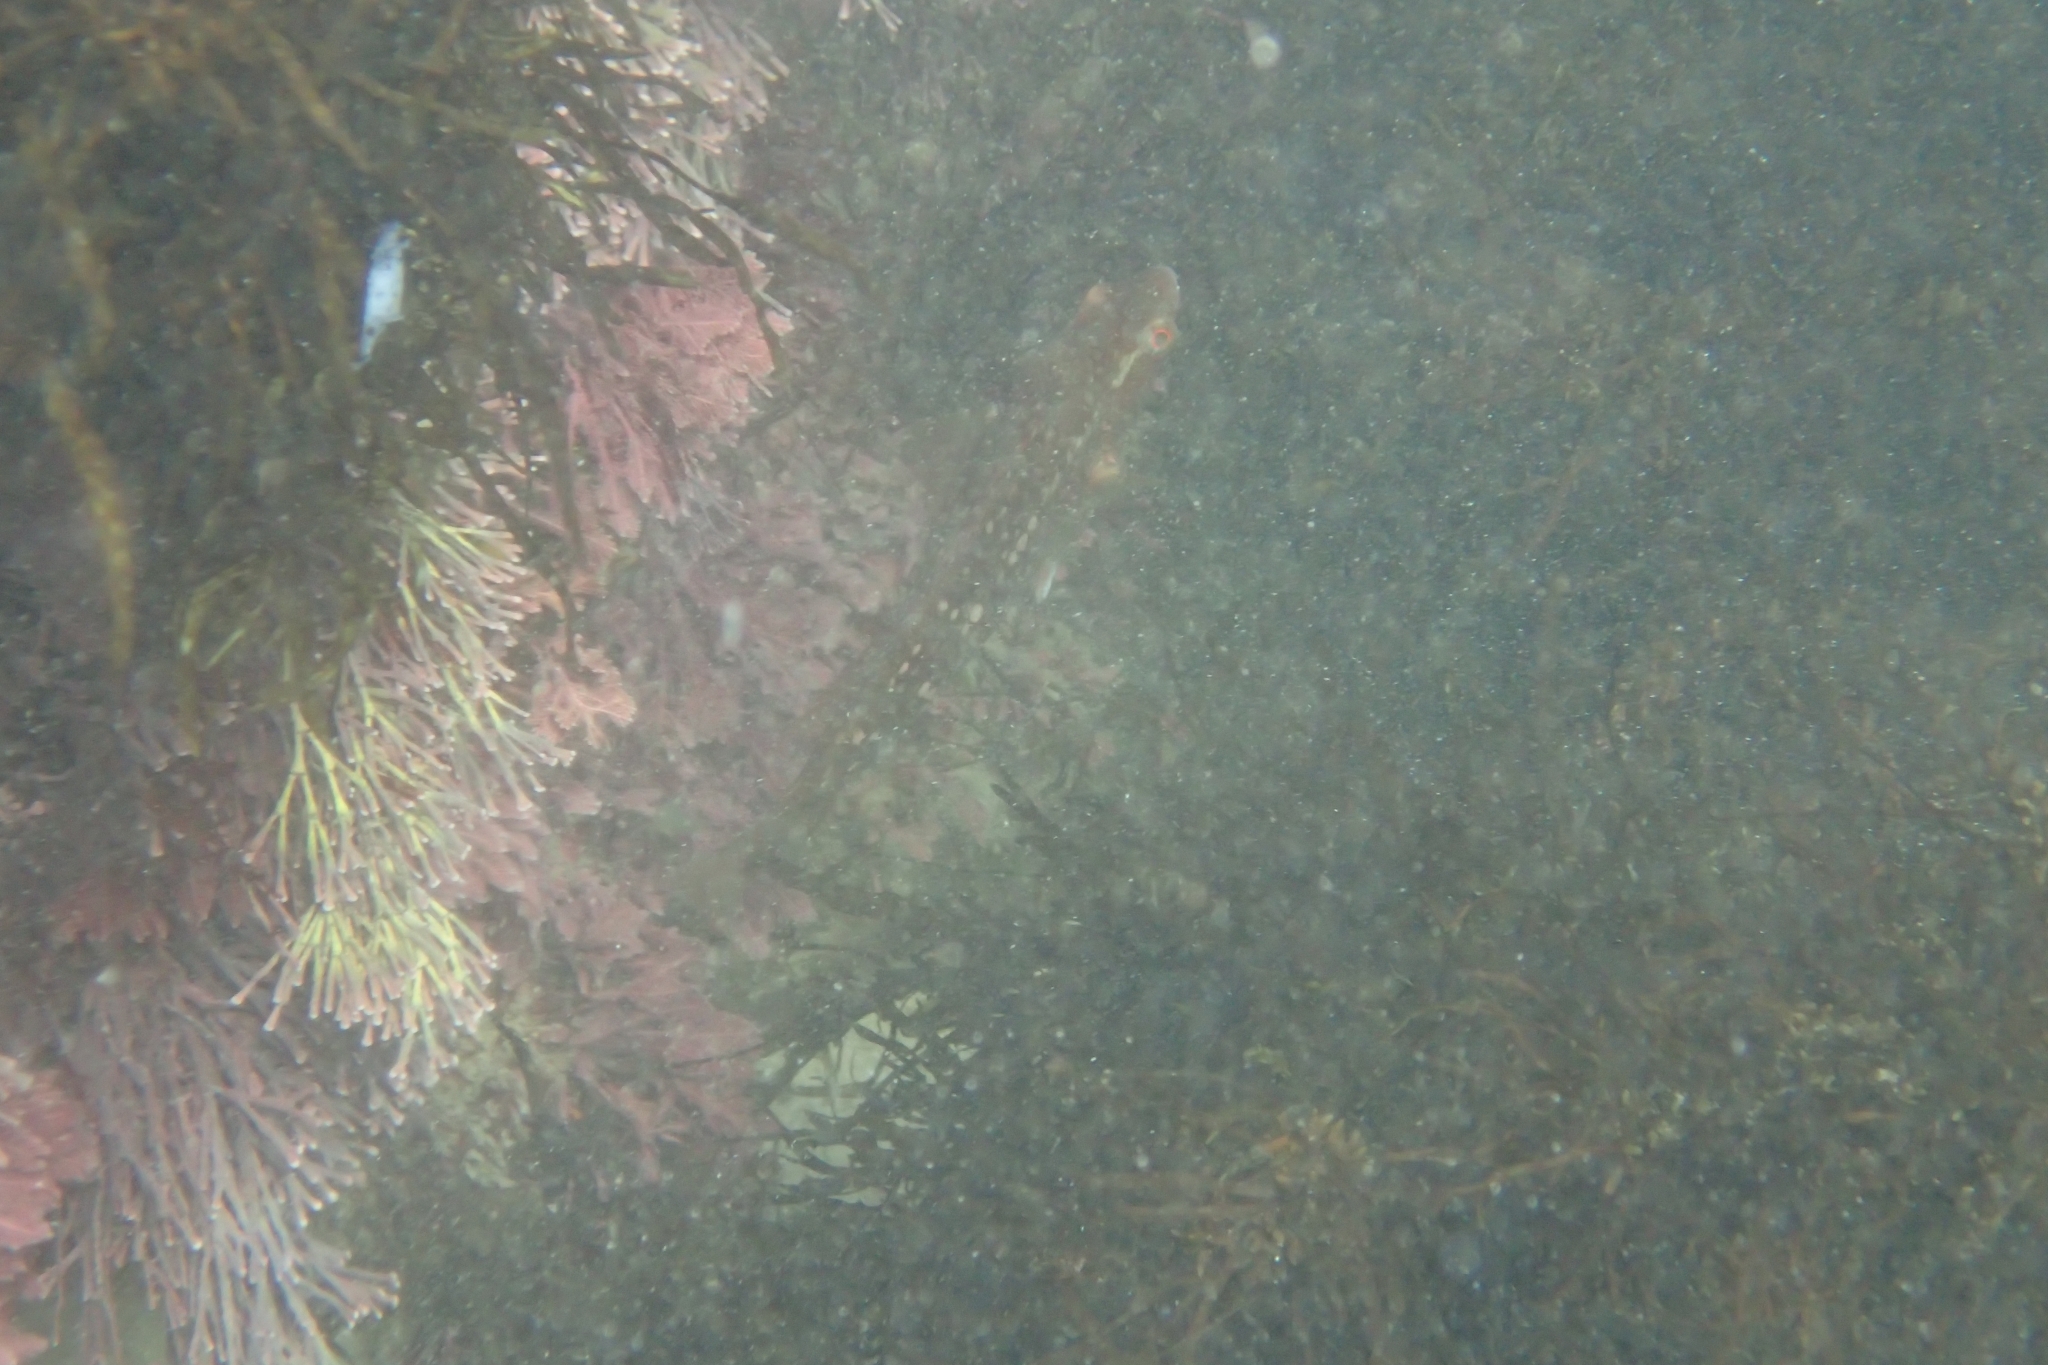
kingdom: Animalia
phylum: Chordata
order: Perciformes
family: Labridae
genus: Notolabrus
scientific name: Notolabrus gymnogenis
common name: Crimson banded wrasse
